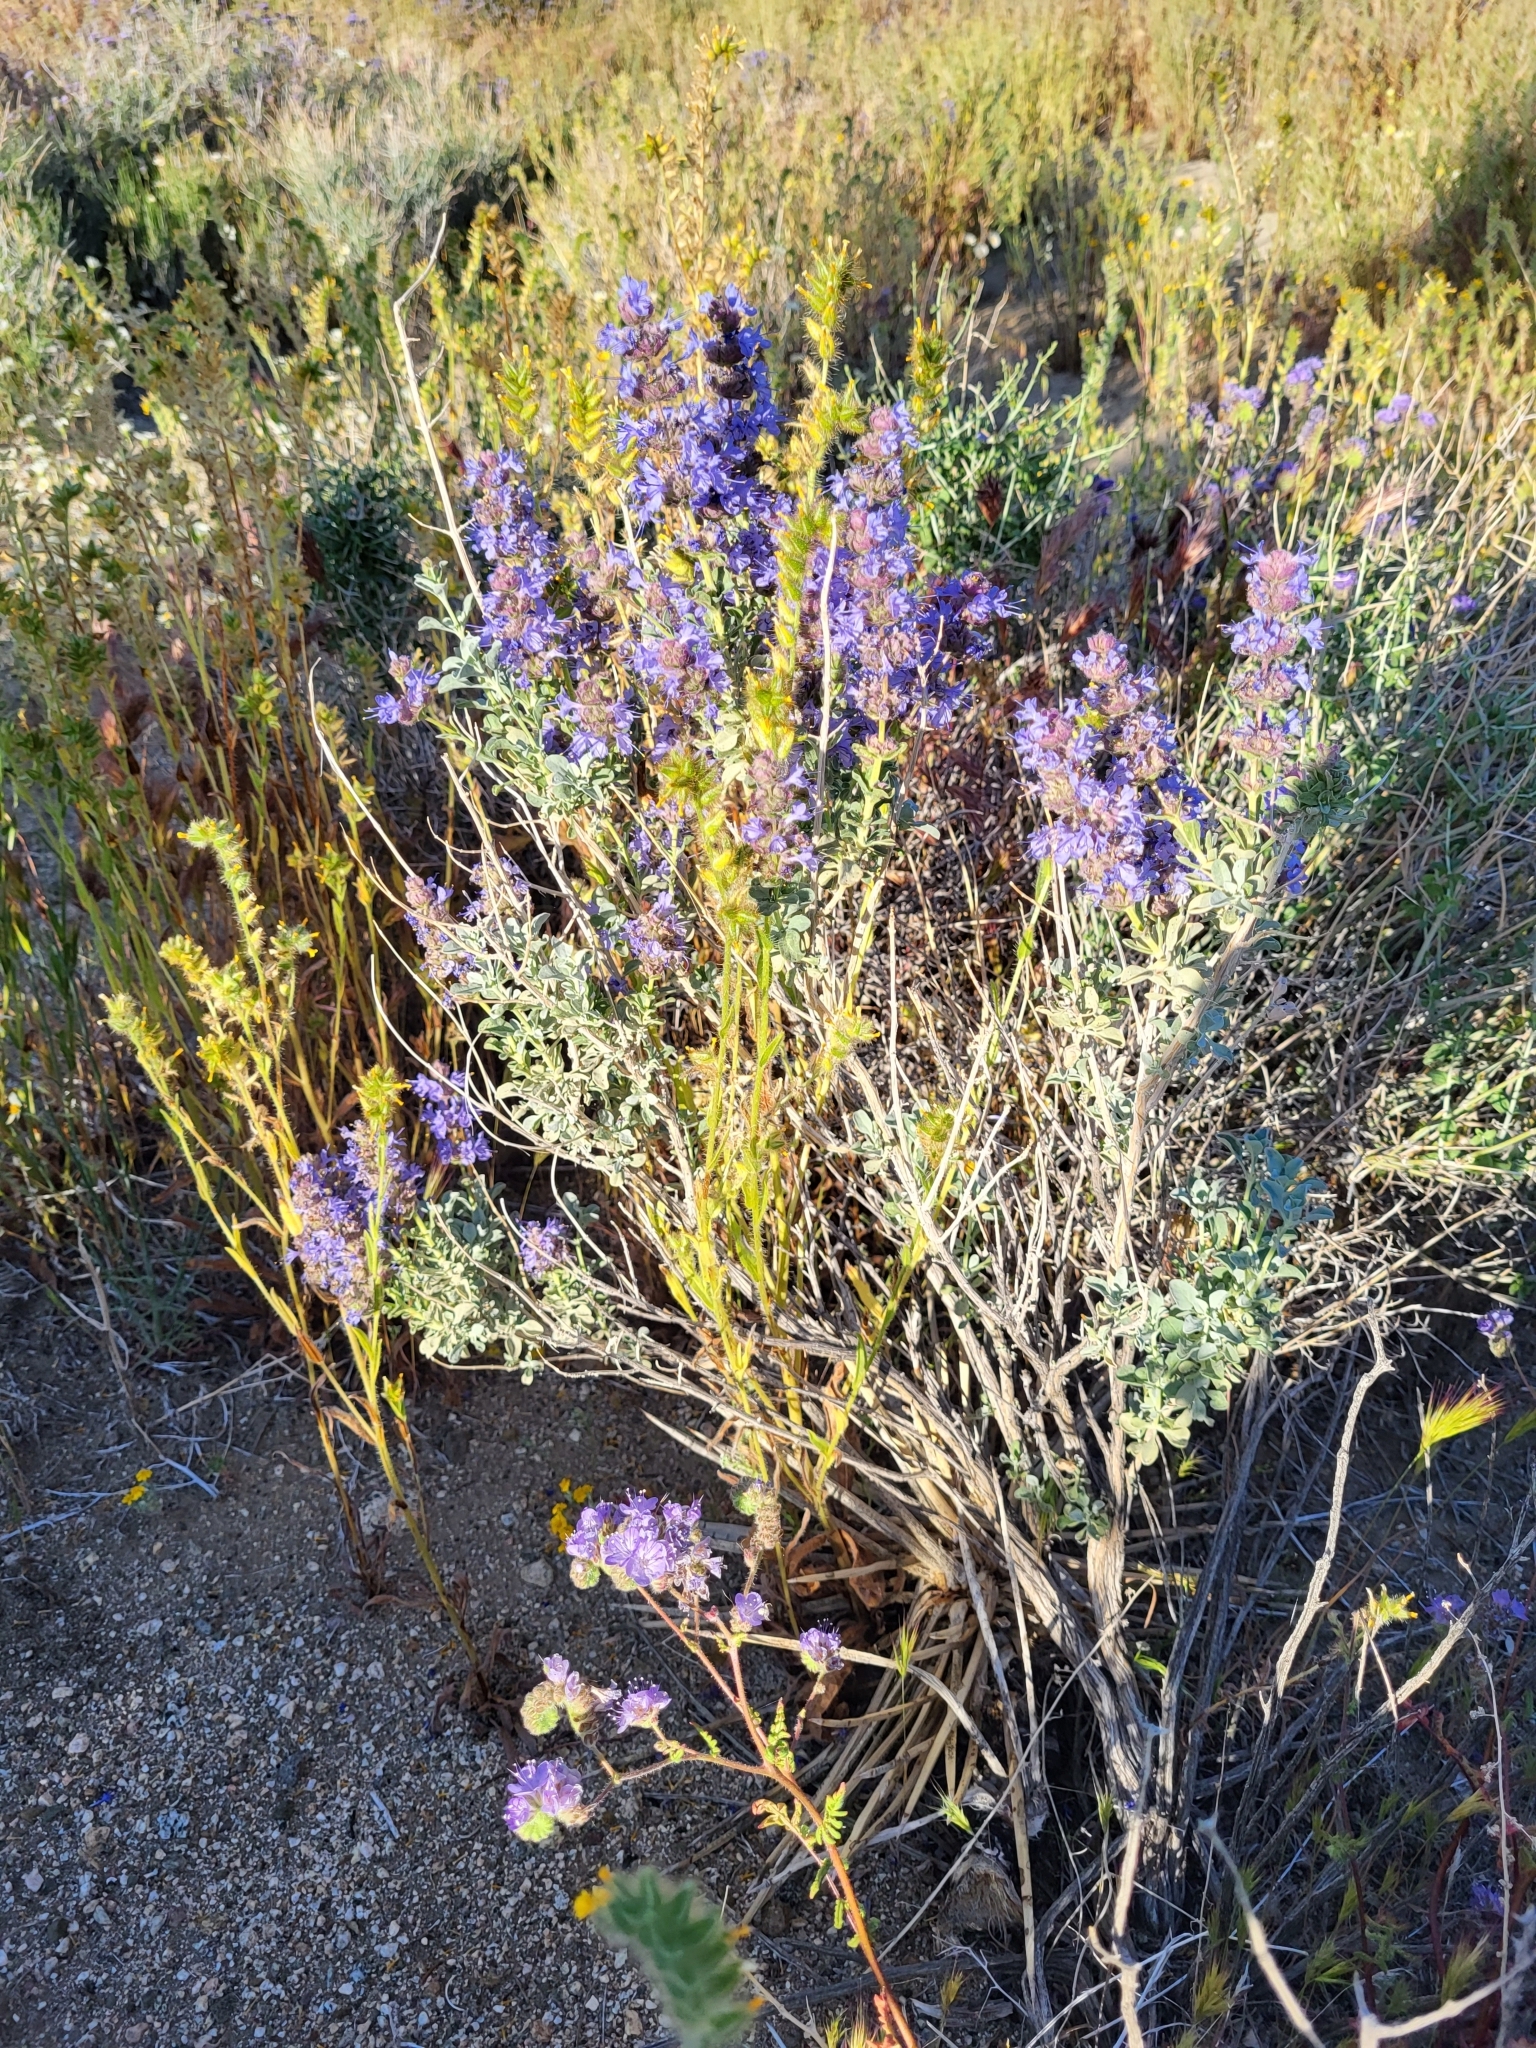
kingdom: Plantae
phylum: Tracheophyta
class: Magnoliopsida
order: Lamiales
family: Lamiaceae
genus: Salvia
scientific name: Salvia dorrii
